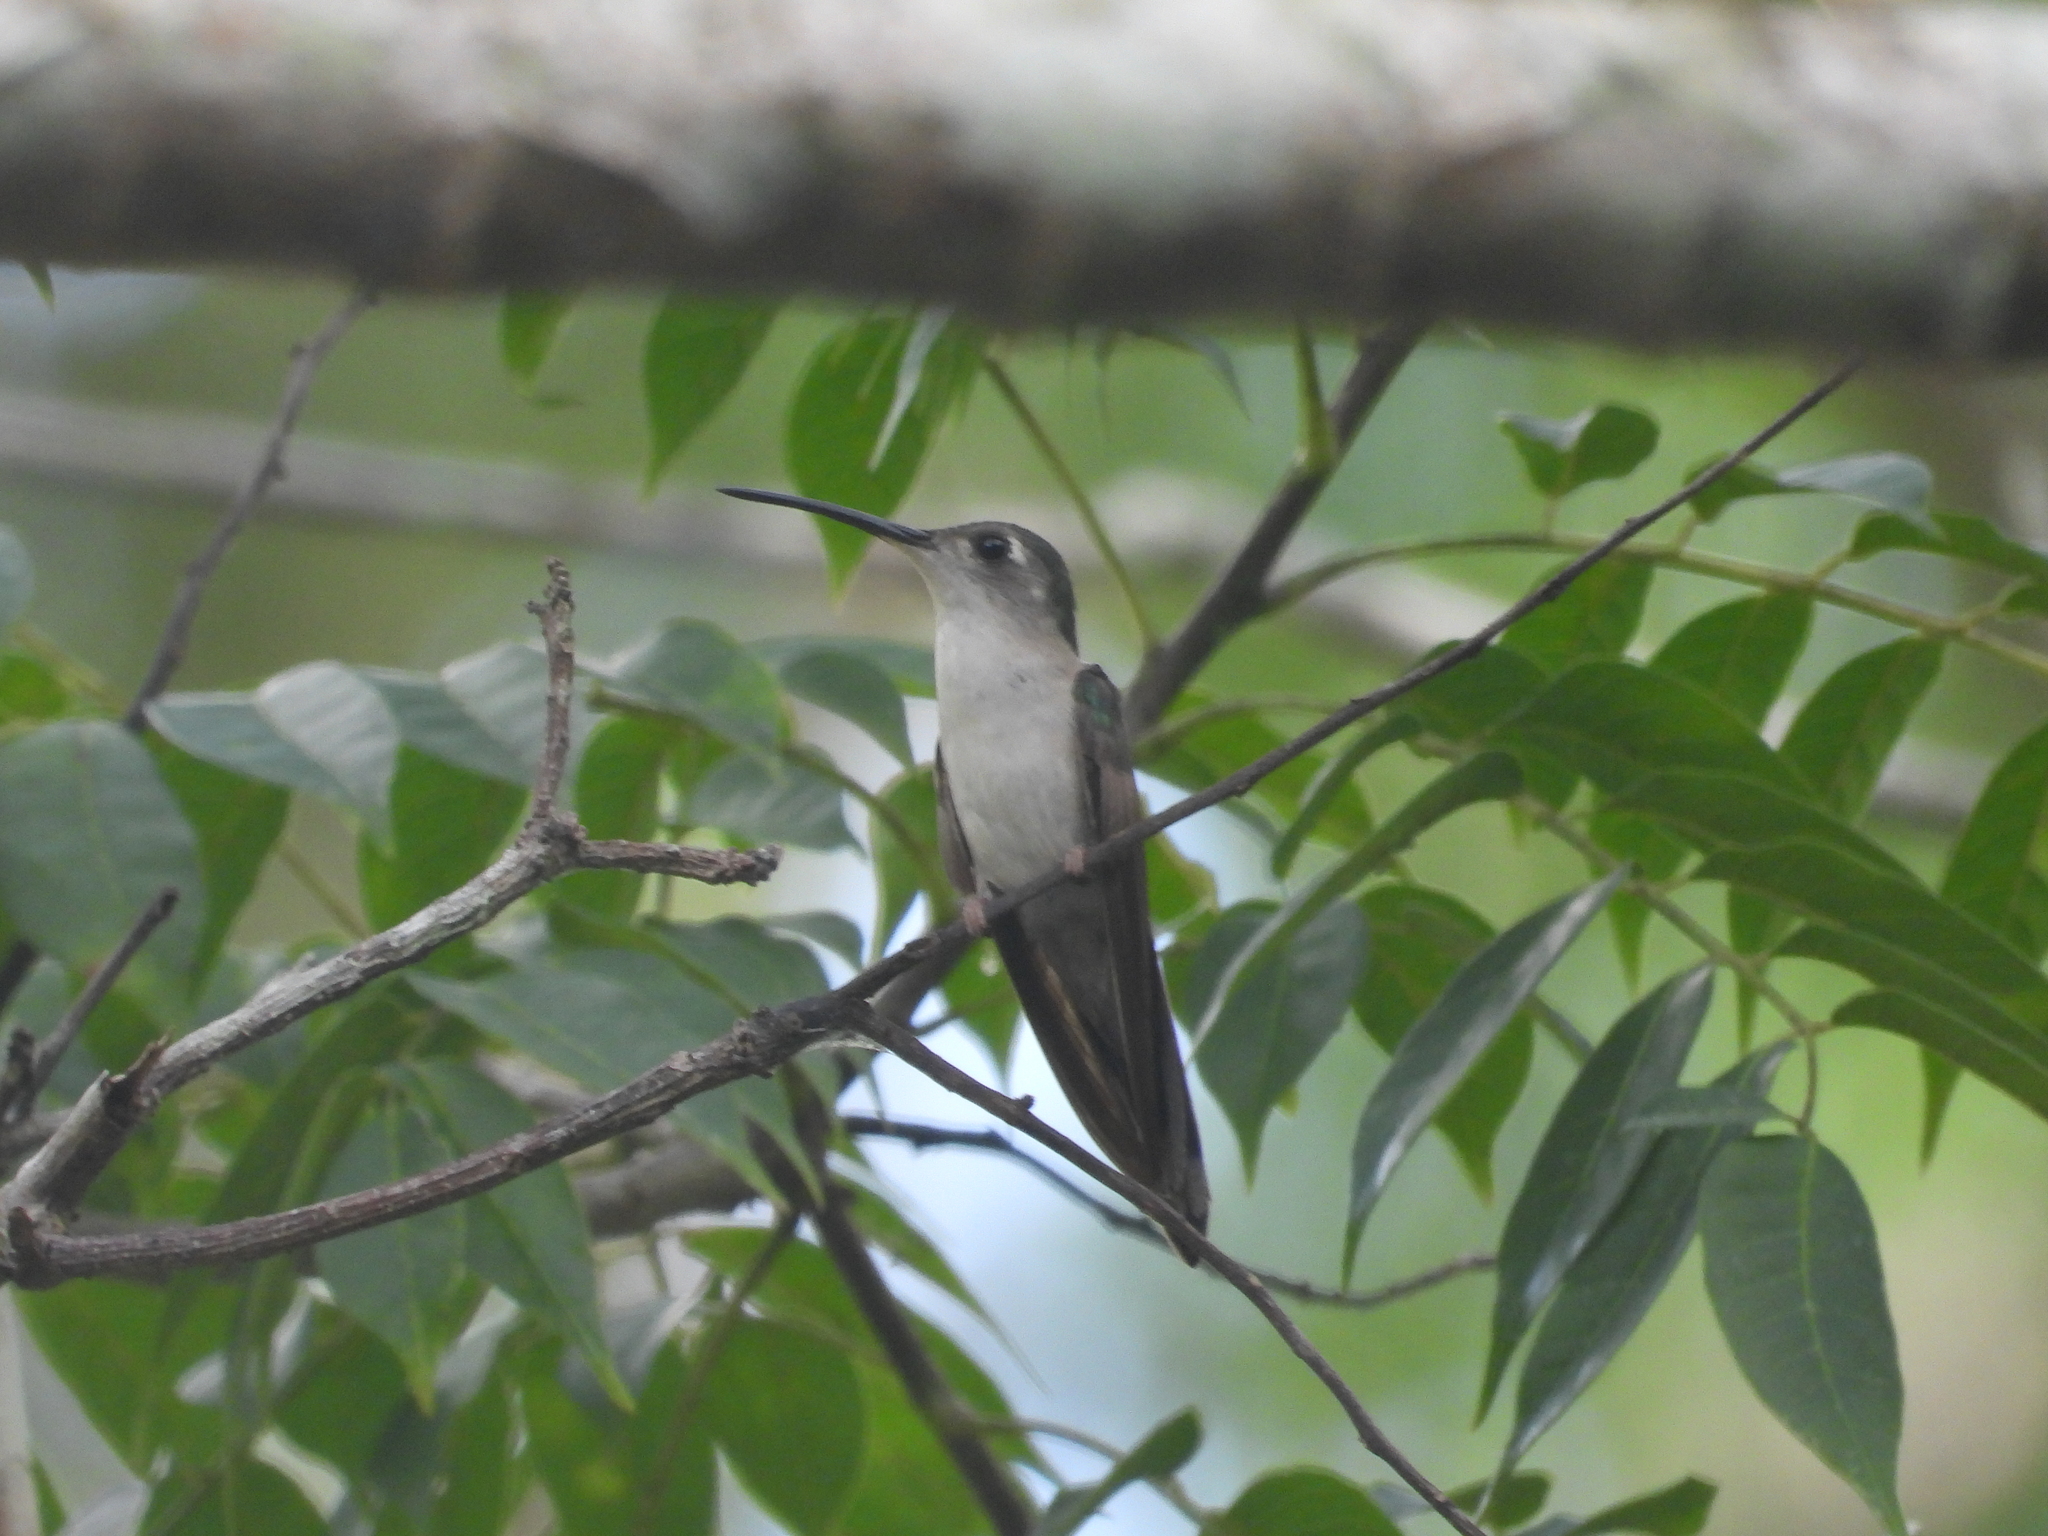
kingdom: Animalia
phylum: Chordata
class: Aves
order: Apodiformes
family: Trochilidae
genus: Pampa
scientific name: Pampa curvipennis
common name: Curve-winged sabrewing
